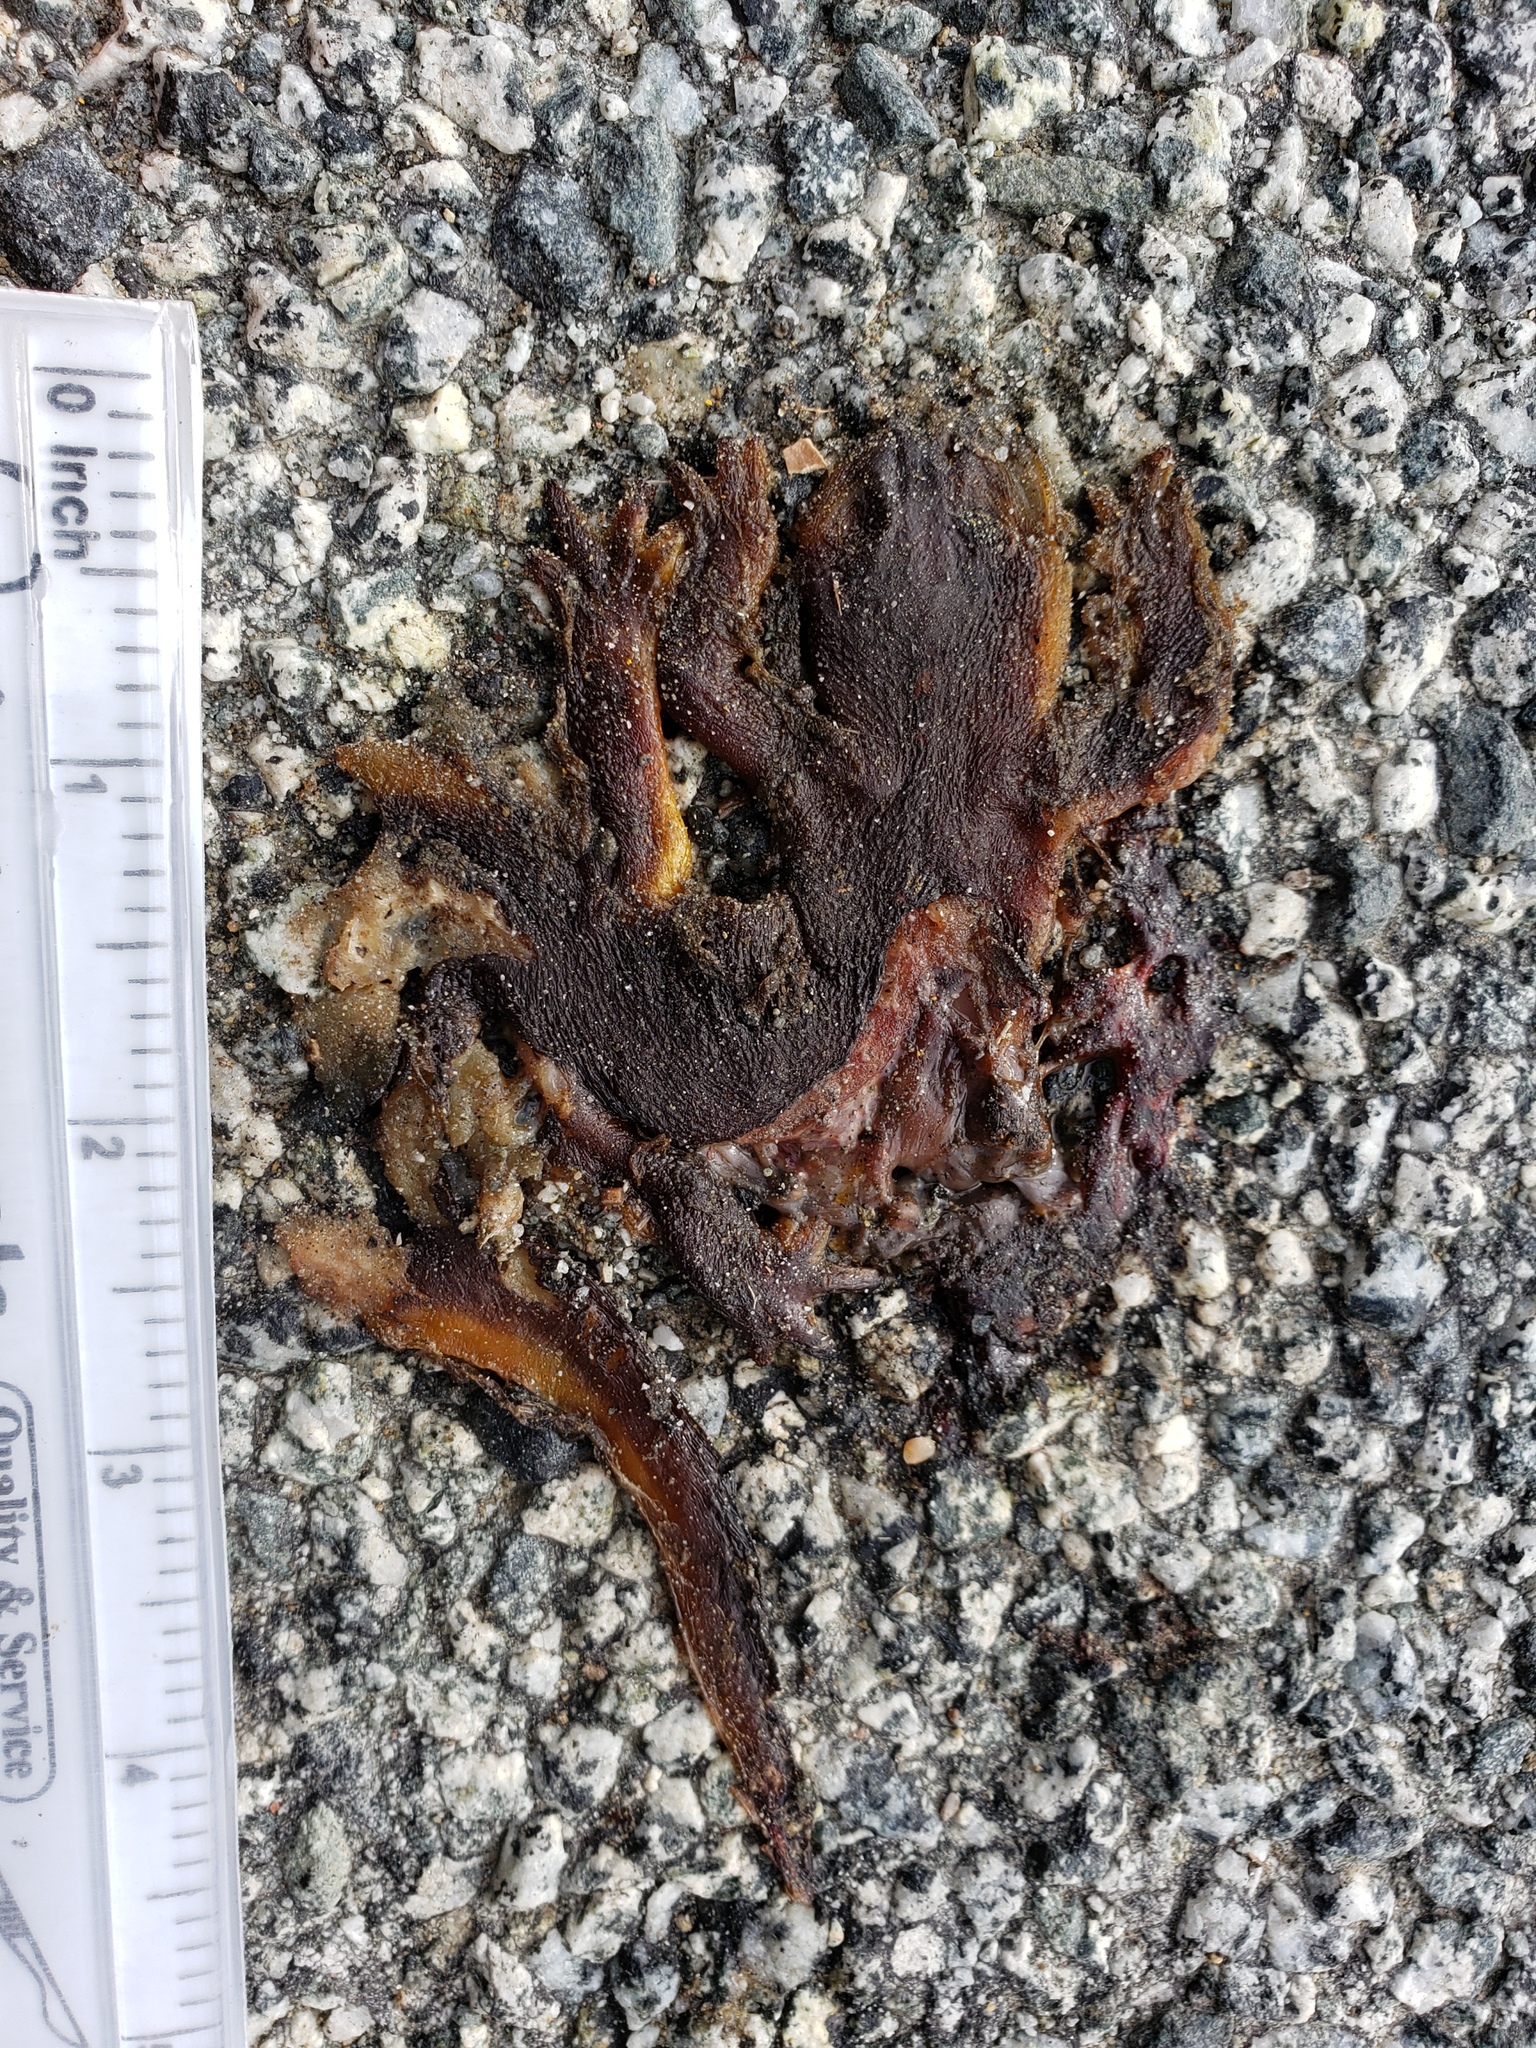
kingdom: Animalia
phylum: Chordata
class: Amphibia
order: Caudata
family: Salamandridae
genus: Taricha
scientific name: Taricha
